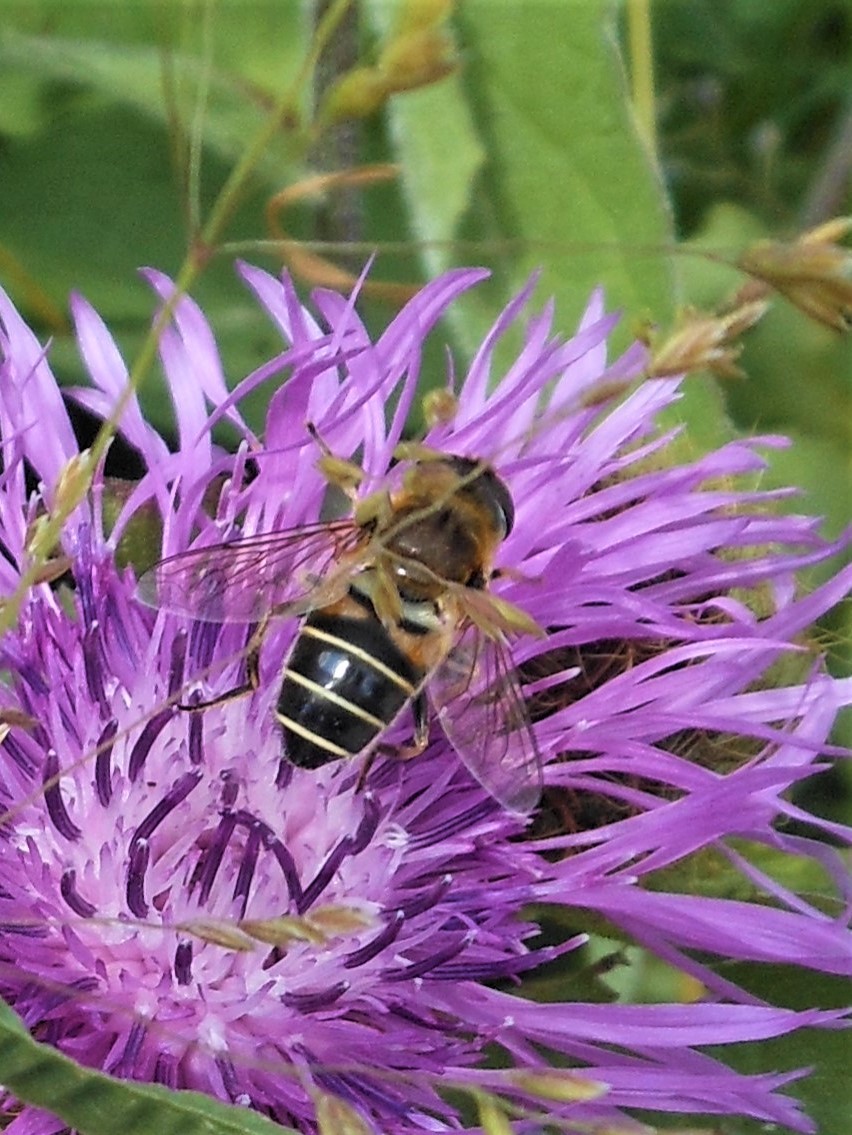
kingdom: Animalia
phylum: Arthropoda
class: Insecta
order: Diptera
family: Syrphidae
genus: Eristalis
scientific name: Eristalis nemorum
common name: Orange-spined drone fly
